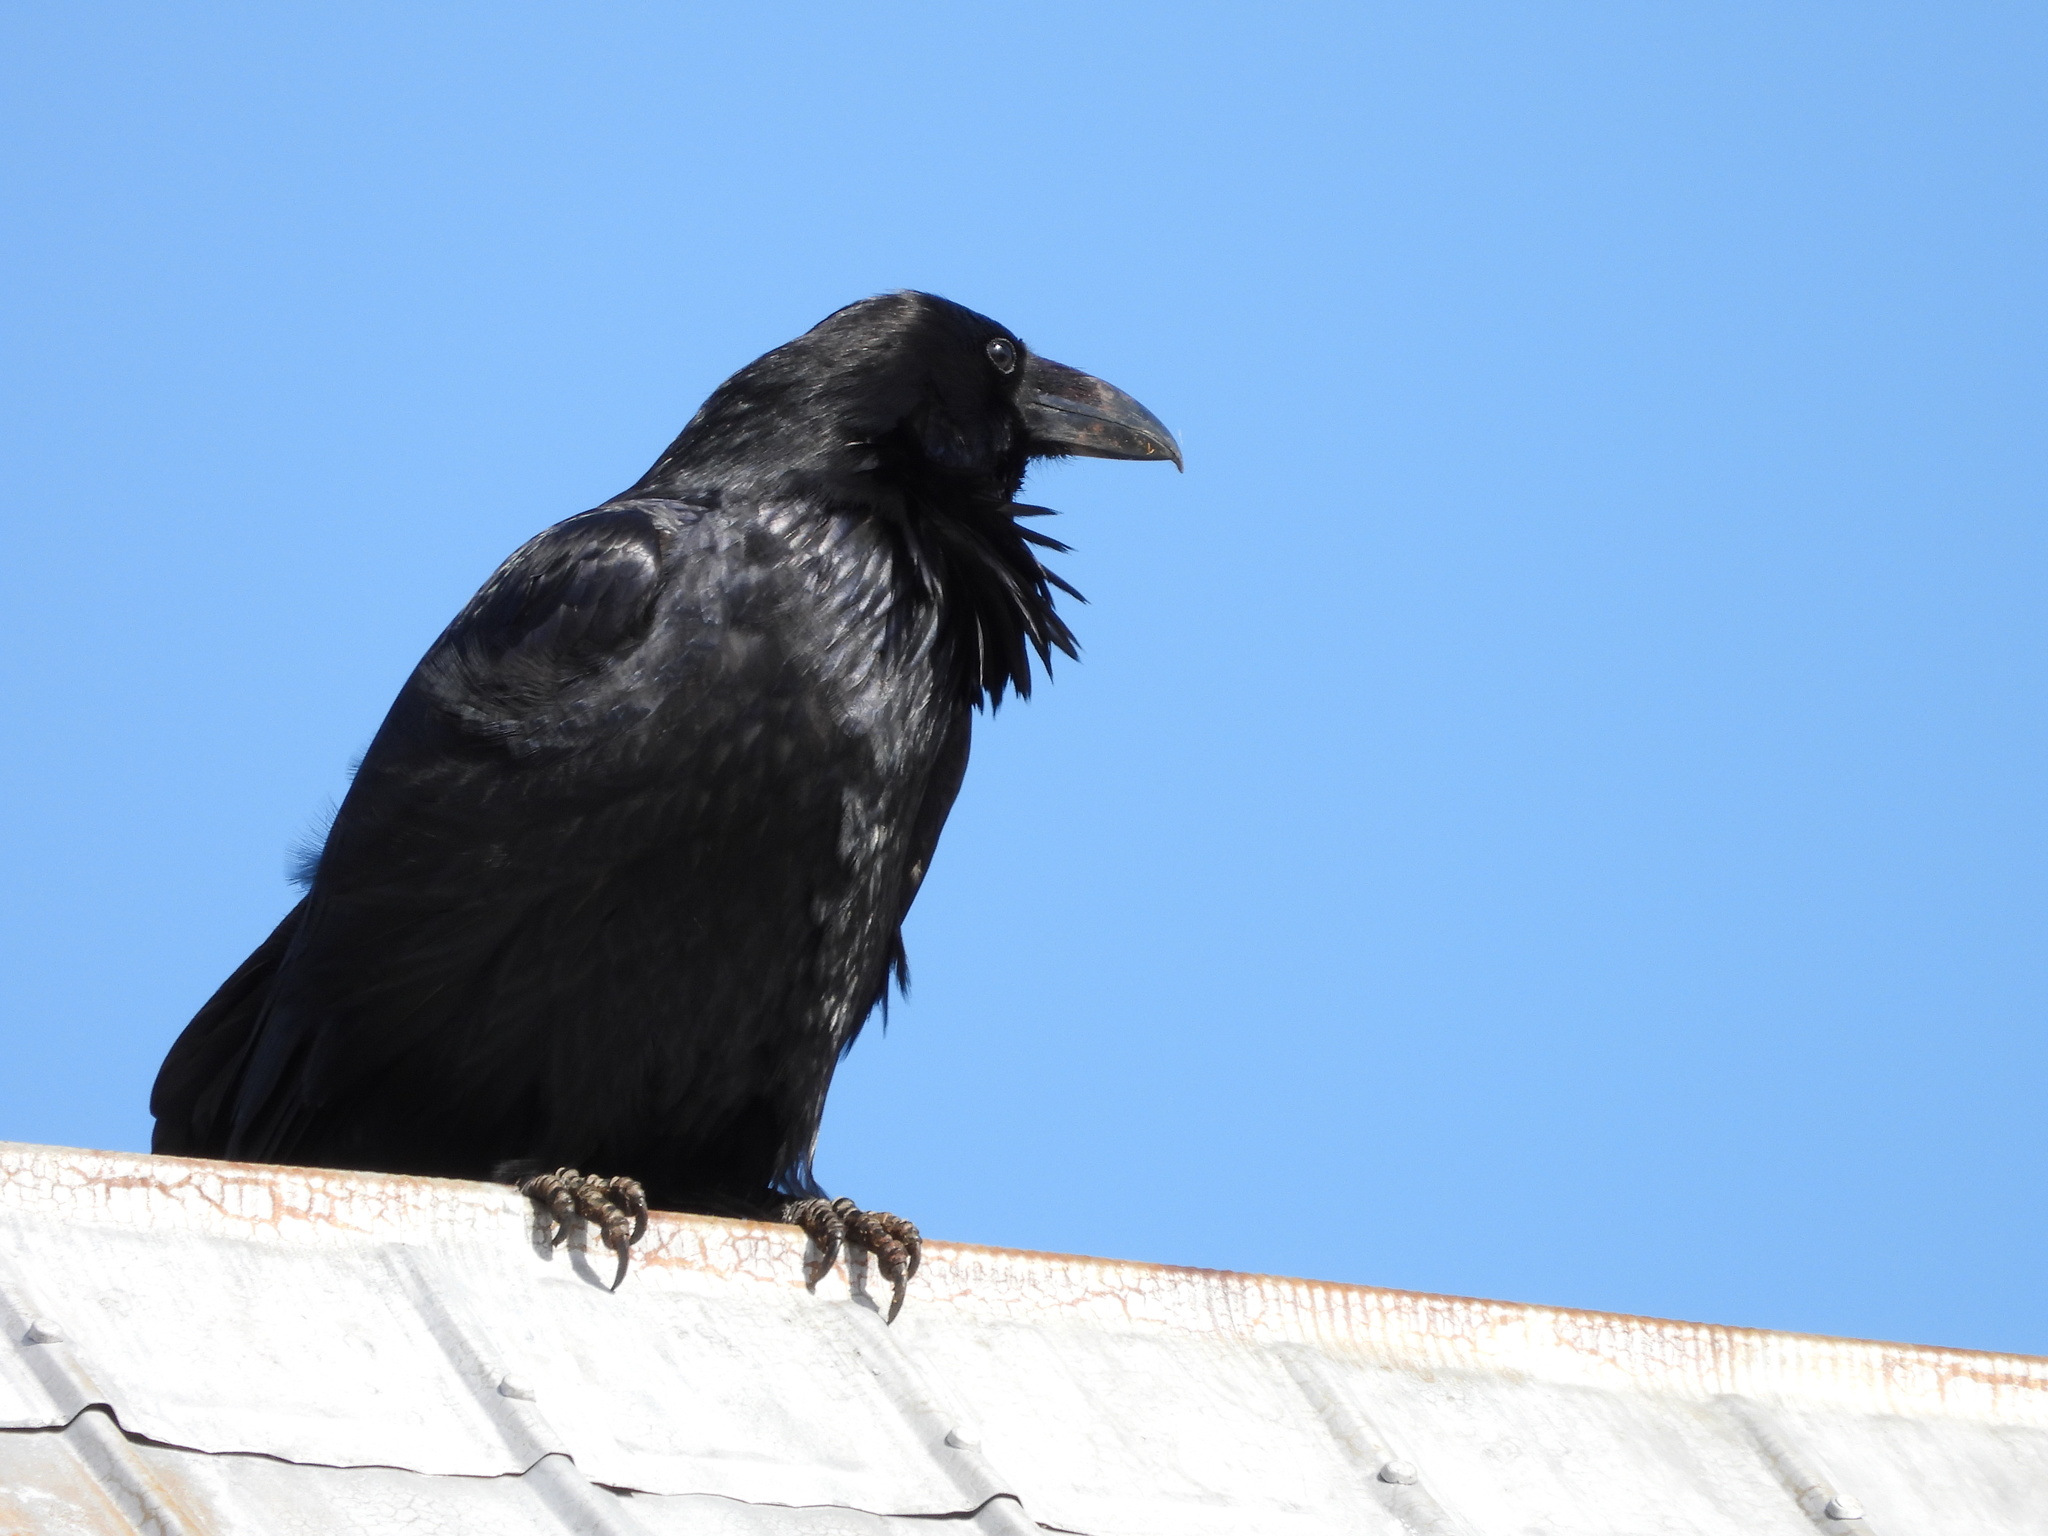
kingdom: Animalia
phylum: Chordata
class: Aves
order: Passeriformes
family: Corvidae
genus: Corvus
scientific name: Corvus corax
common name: Common raven
